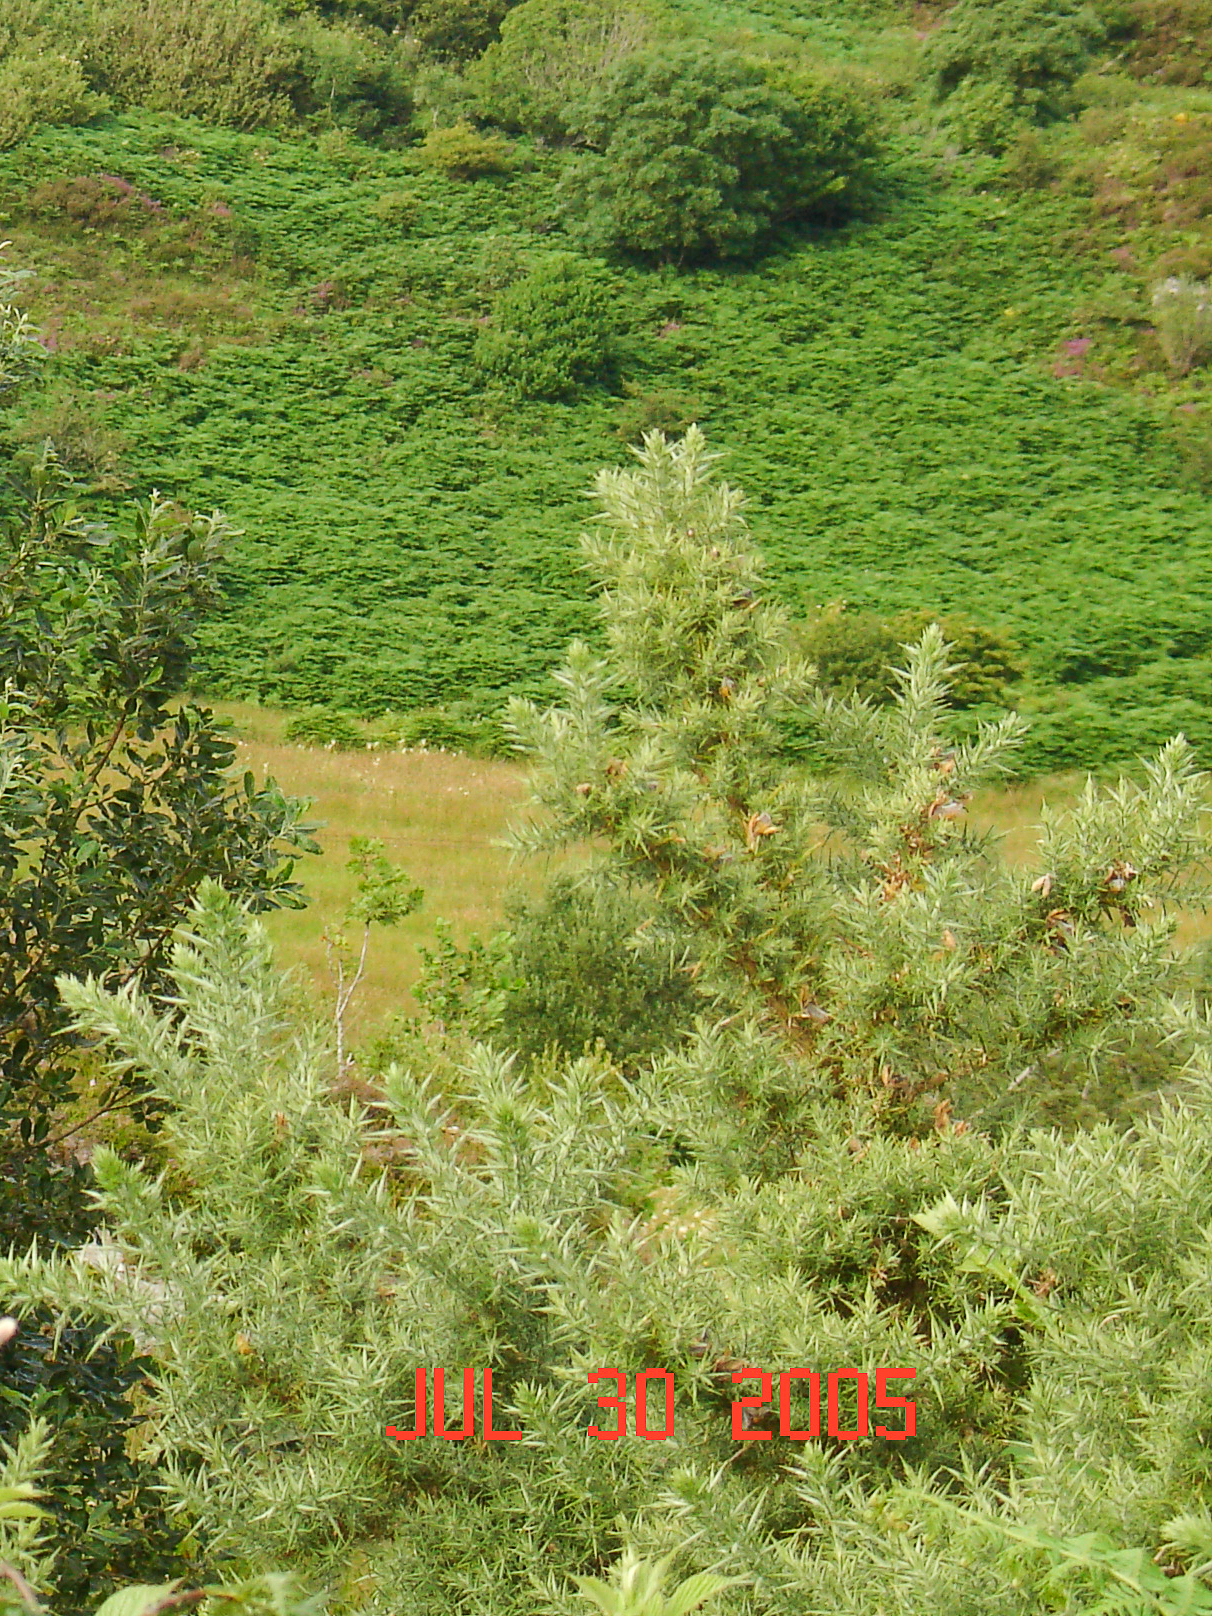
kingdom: Plantae
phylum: Tracheophyta
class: Magnoliopsida
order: Fabales
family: Fabaceae
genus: Ulex
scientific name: Ulex europaeus
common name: Common gorse
